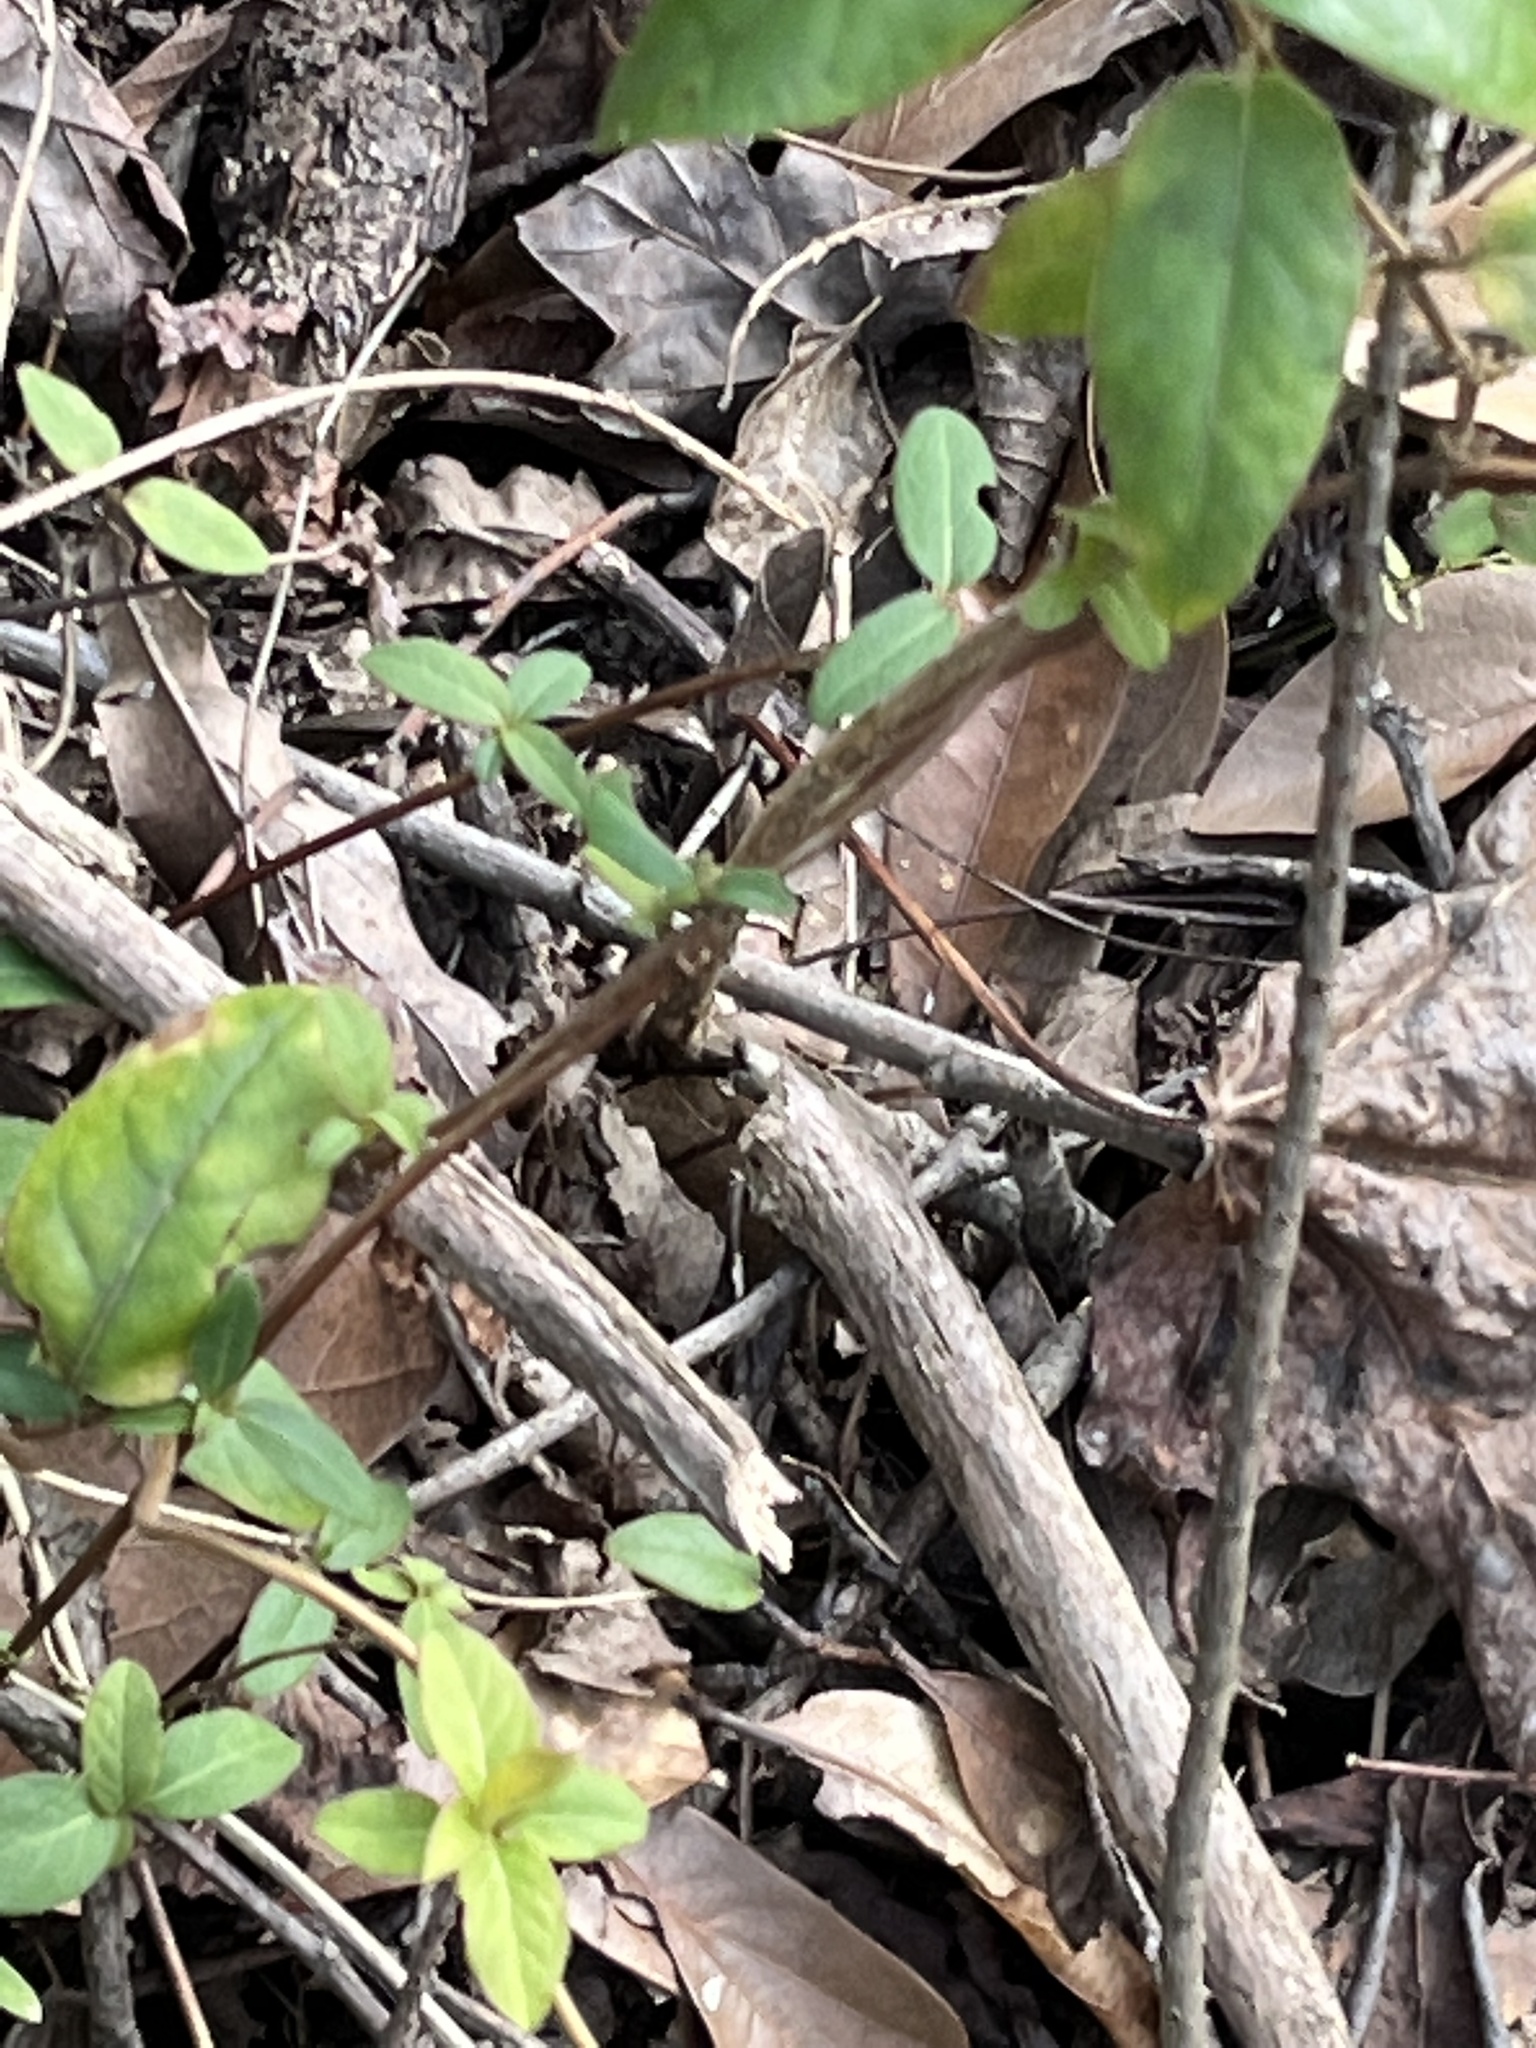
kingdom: Animalia
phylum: Chordata
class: Squamata
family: Scincidae
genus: Scincella
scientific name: Scincella lateralis
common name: Ground skink
